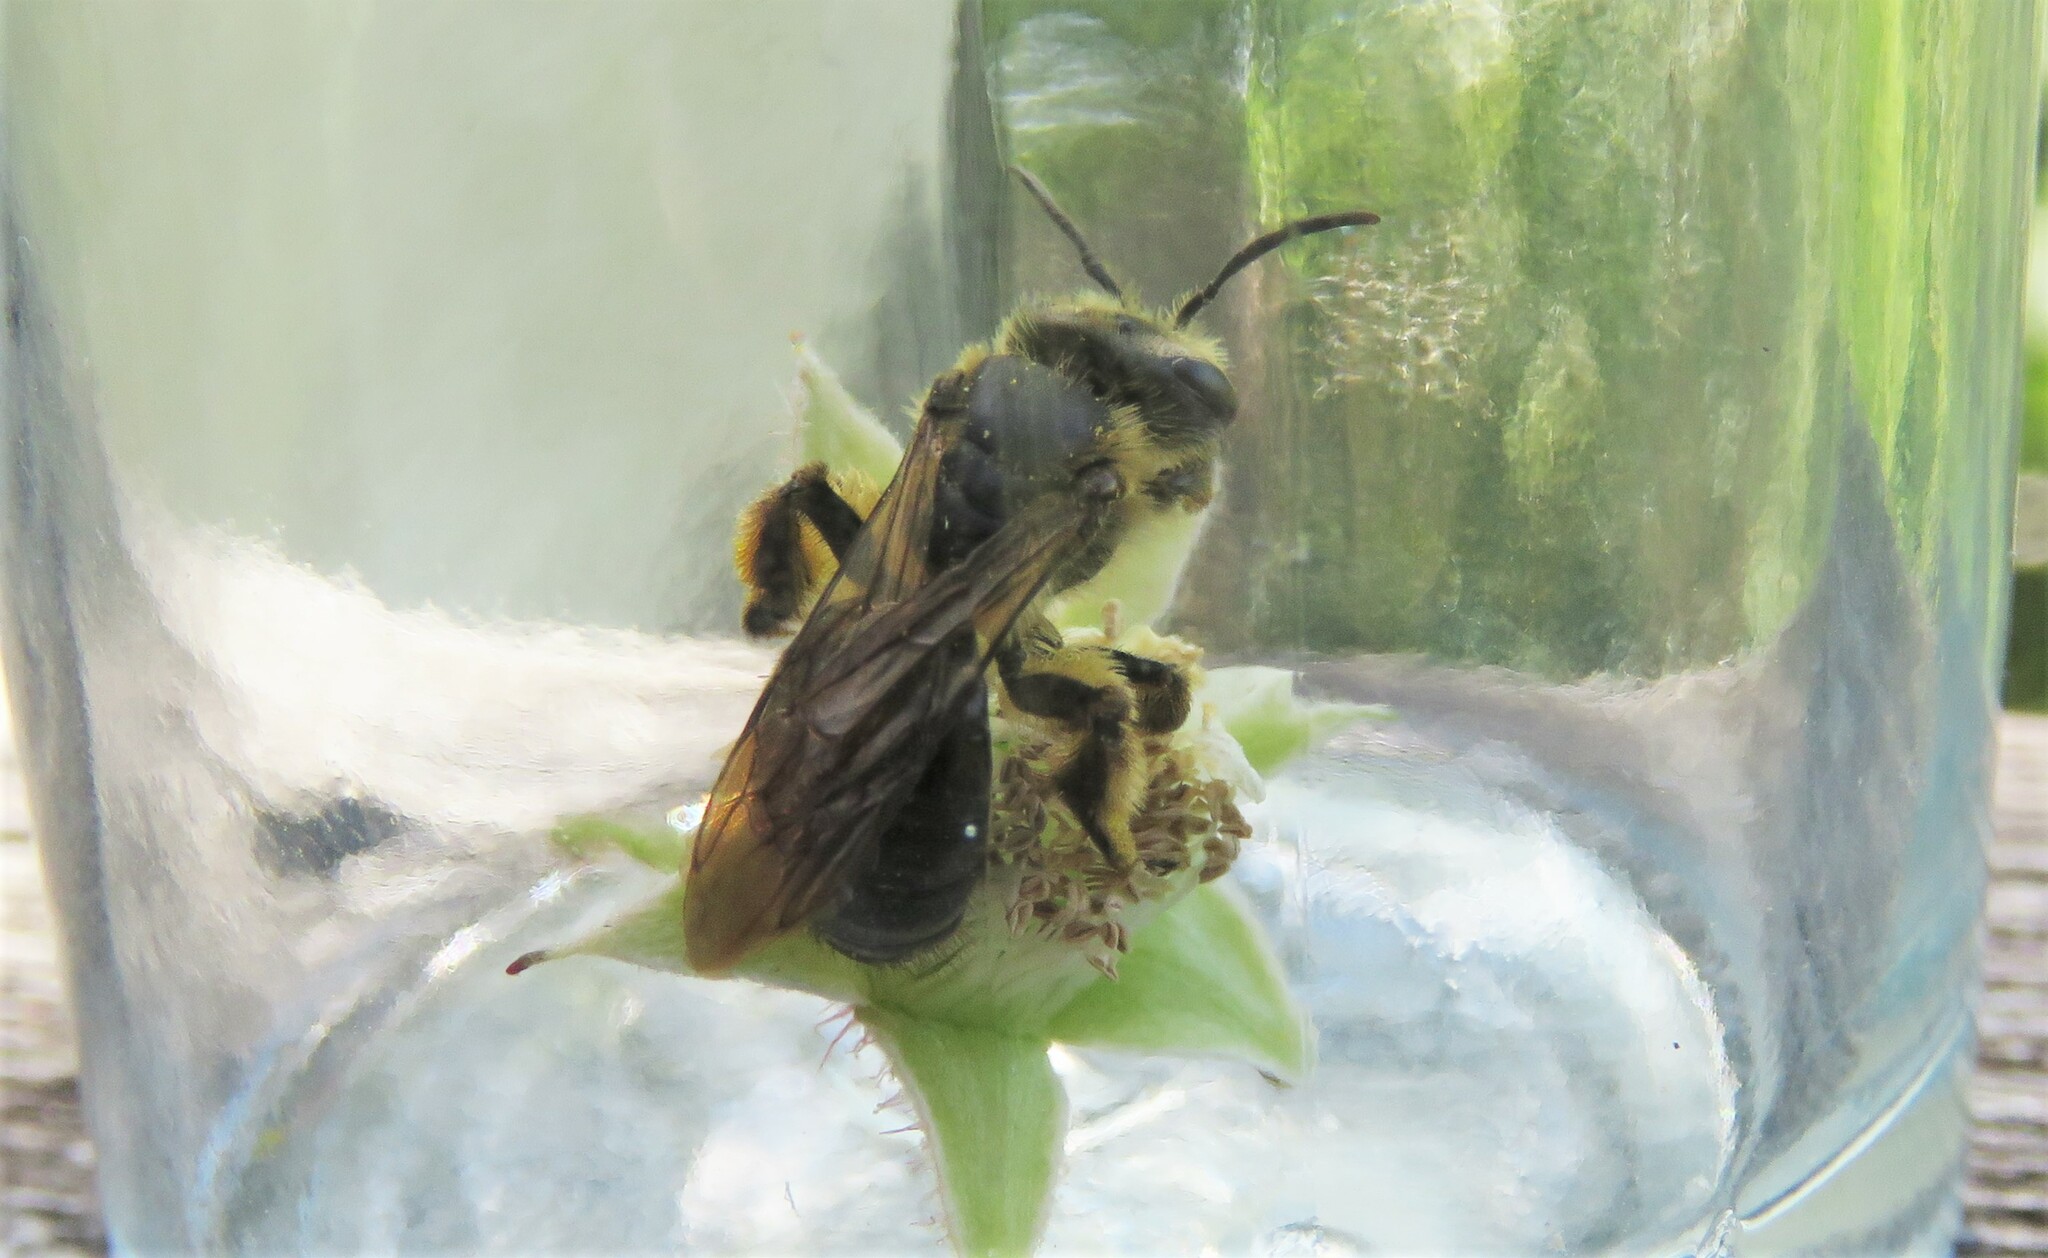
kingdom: Animalia
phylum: Arthropoda
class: Insecta
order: Hymenoptera
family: Andrenidae
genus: Andrena
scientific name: Andrena crataegi
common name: Hawthorn mining bee
